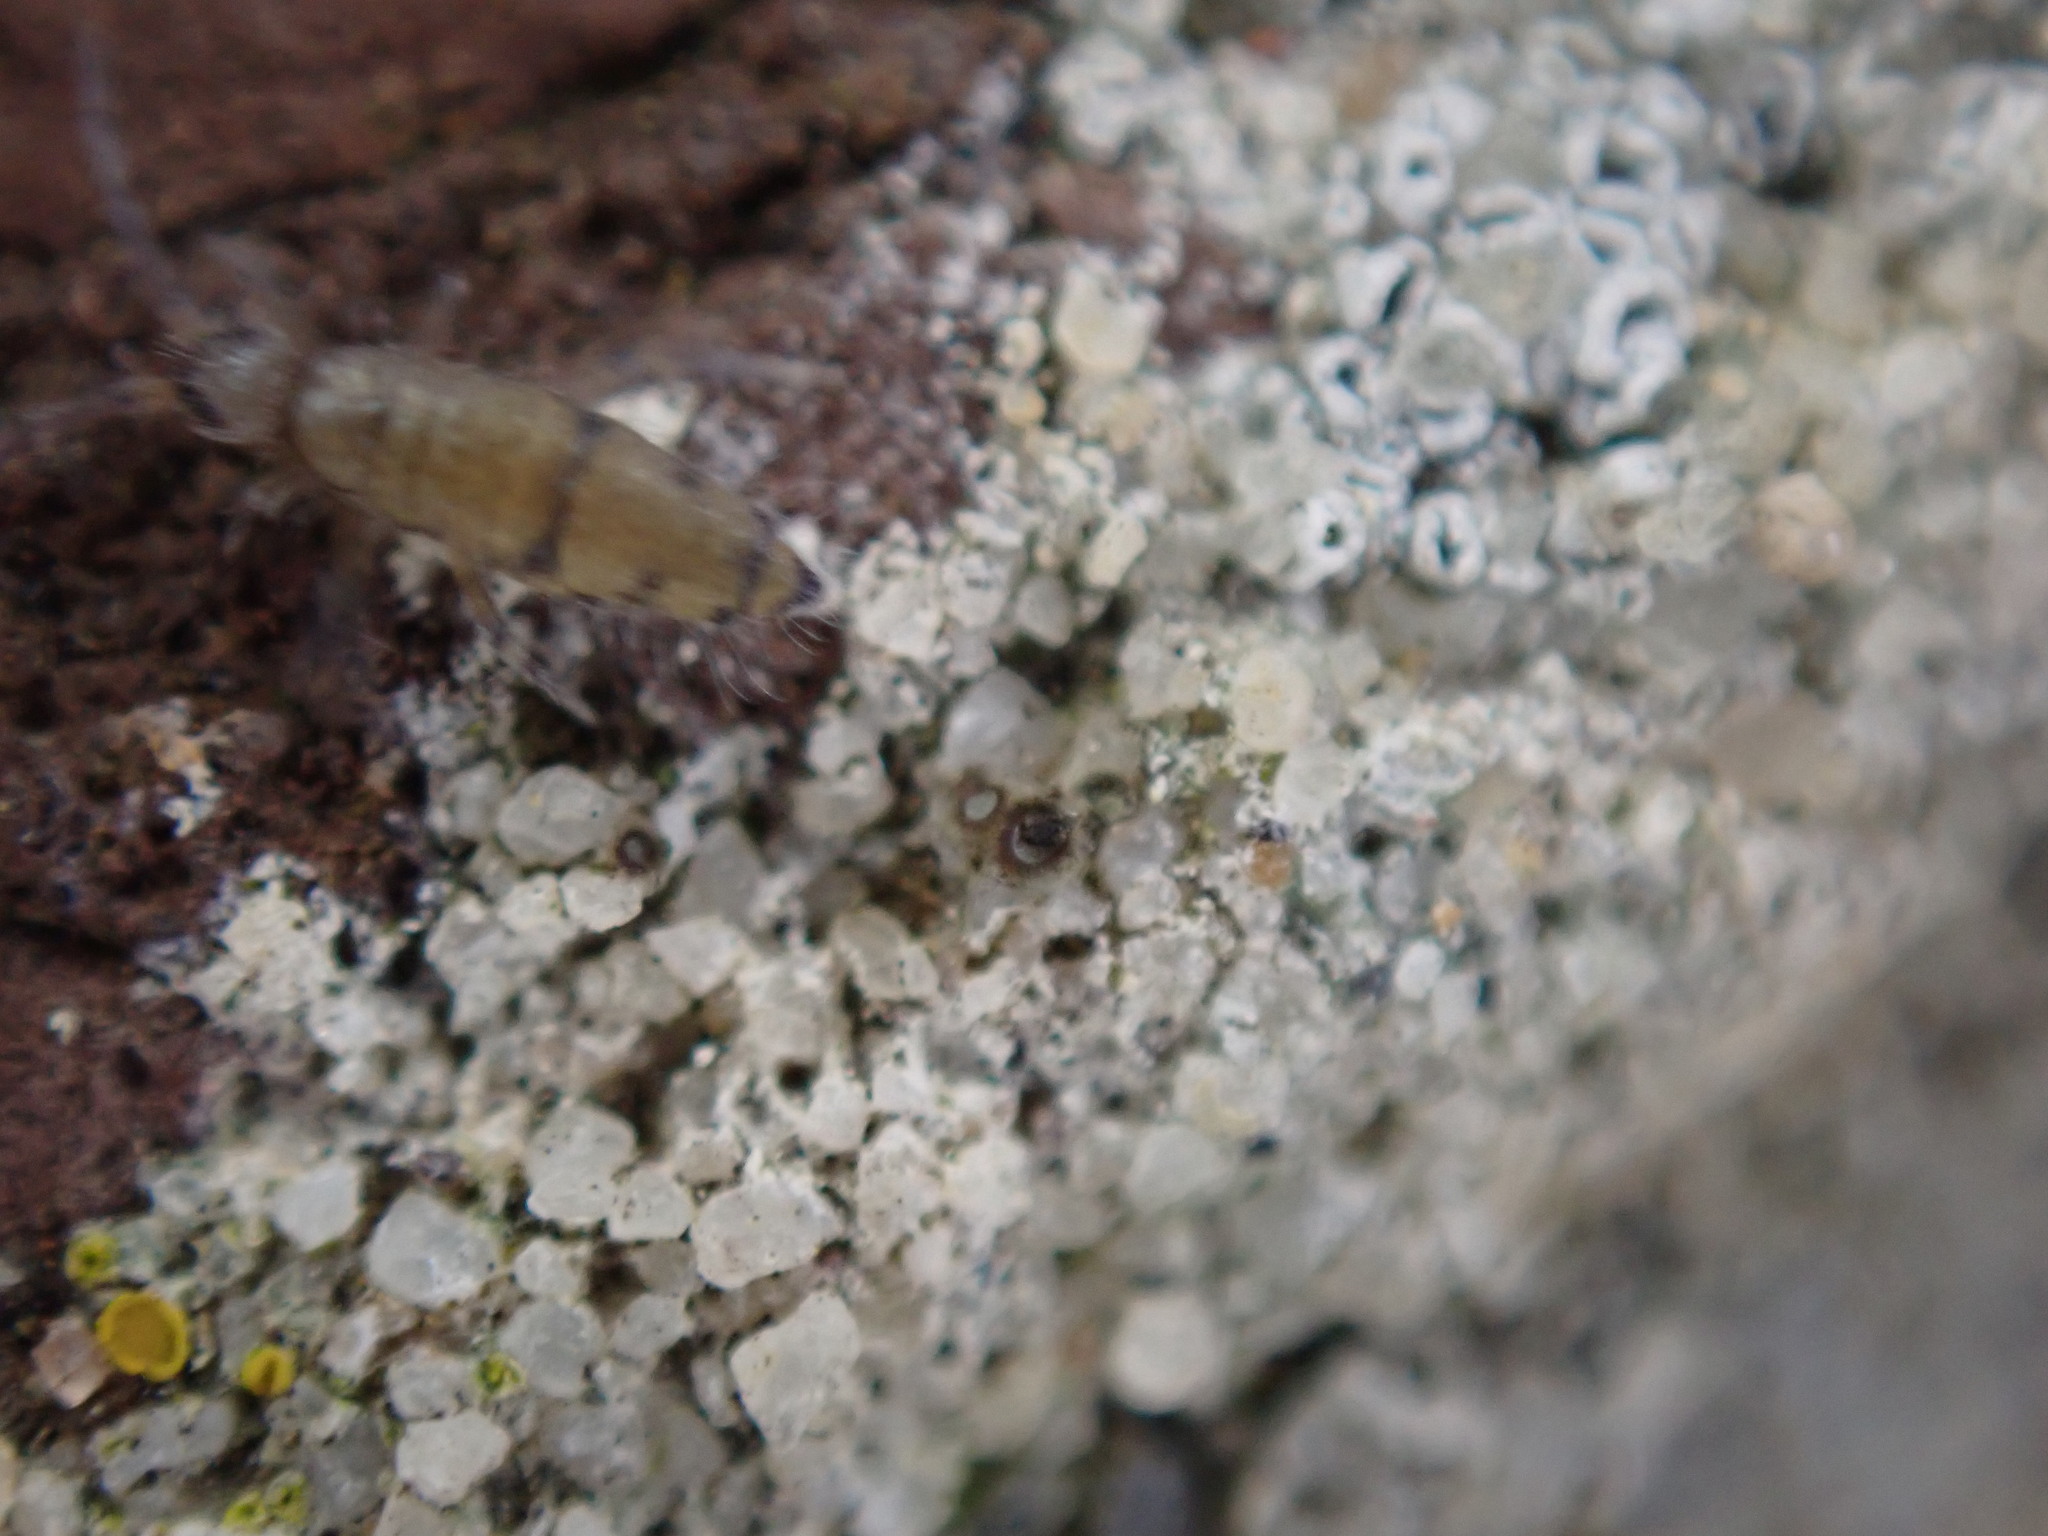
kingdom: Animalia
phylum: Arthropoda
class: Collembola
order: Entomobryomorpha
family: Entomobryidae
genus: Willowsia
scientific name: Willowsia nigromaculata
